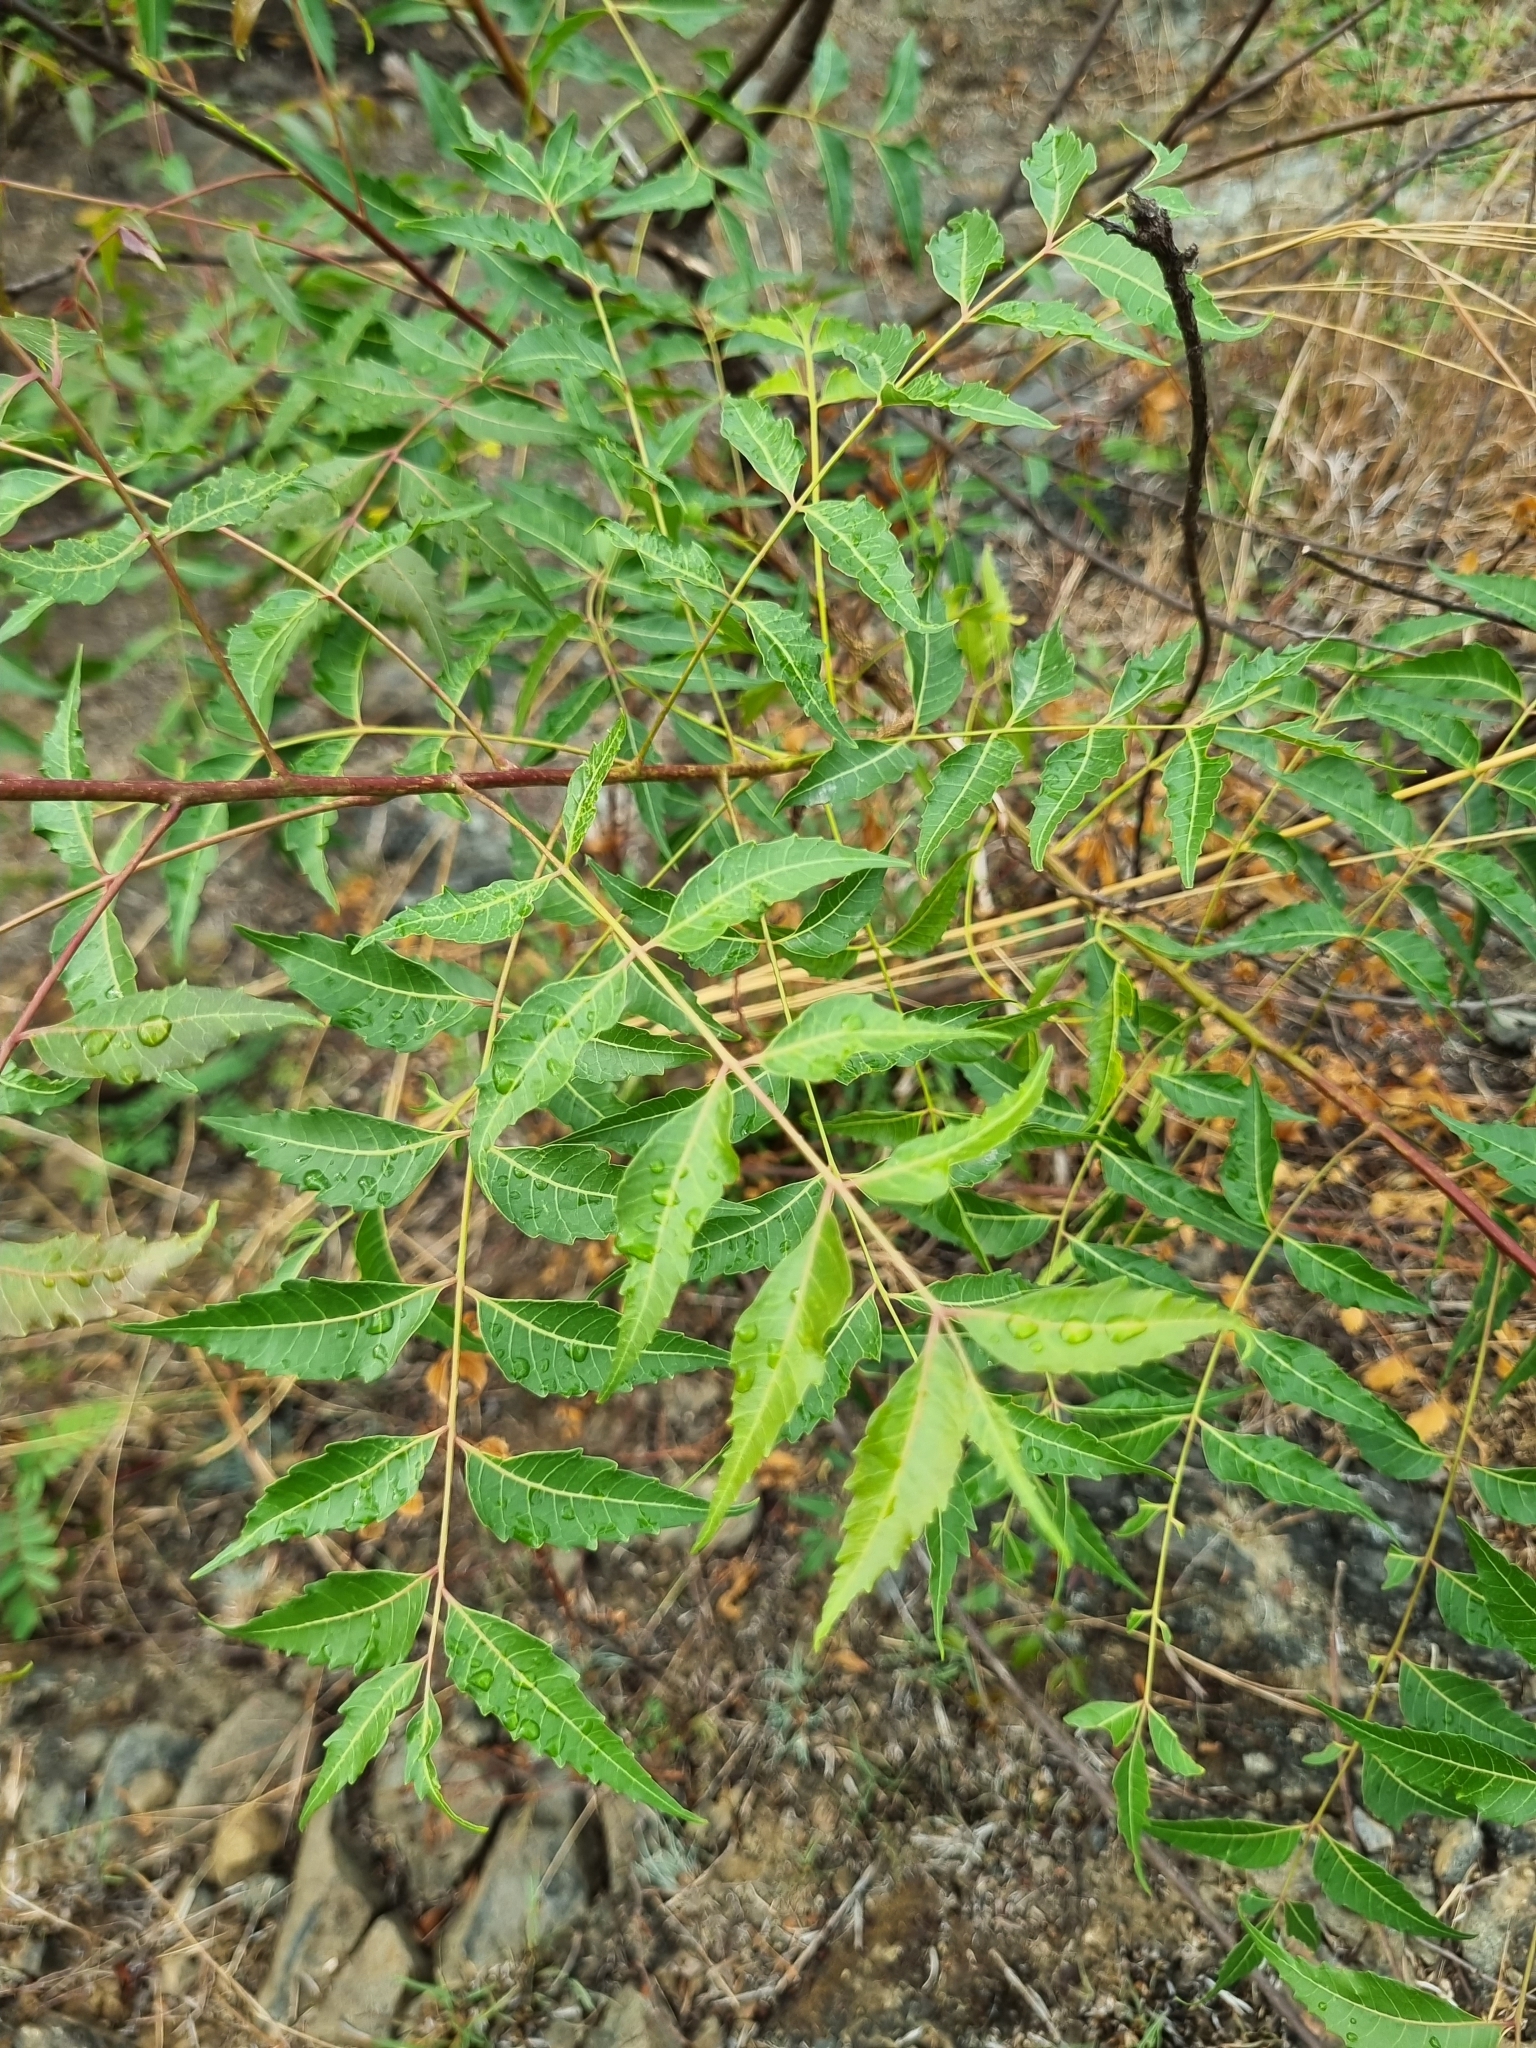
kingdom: Plantae
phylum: Tracheophyta
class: Magnoliopsida
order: Sapindales
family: Meliaceae
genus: Azadirachta
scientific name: Azadirachta indica
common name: Neem
